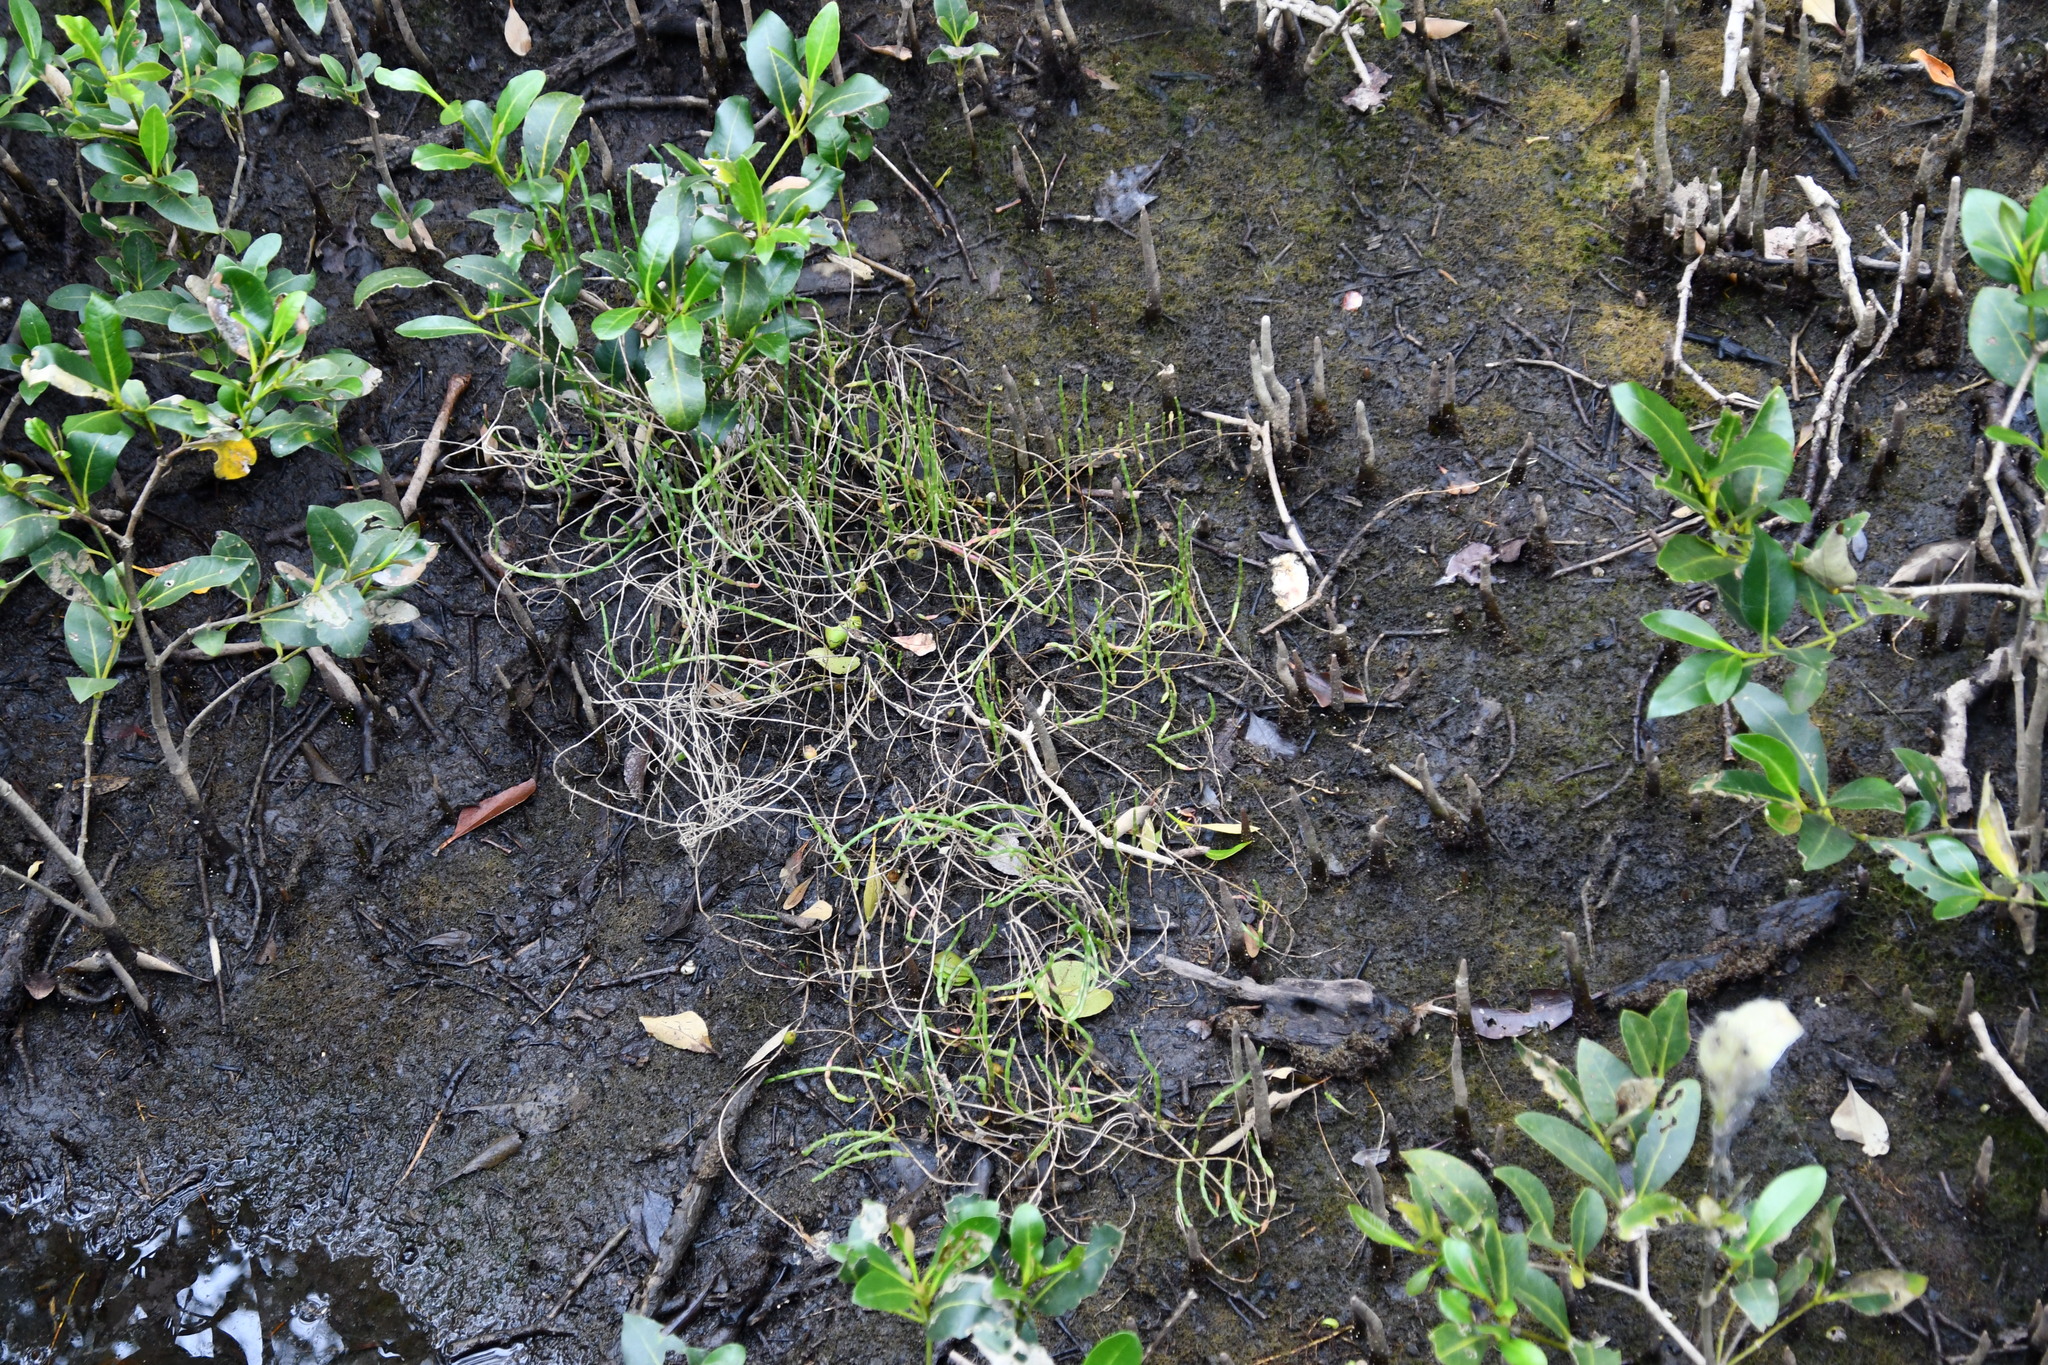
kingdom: Plantae
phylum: Tracheophyta
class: Magnoliopsida
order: Caryophyllales
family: Amaranthaceae
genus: Salicornia
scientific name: Salicornia quinqueflora
